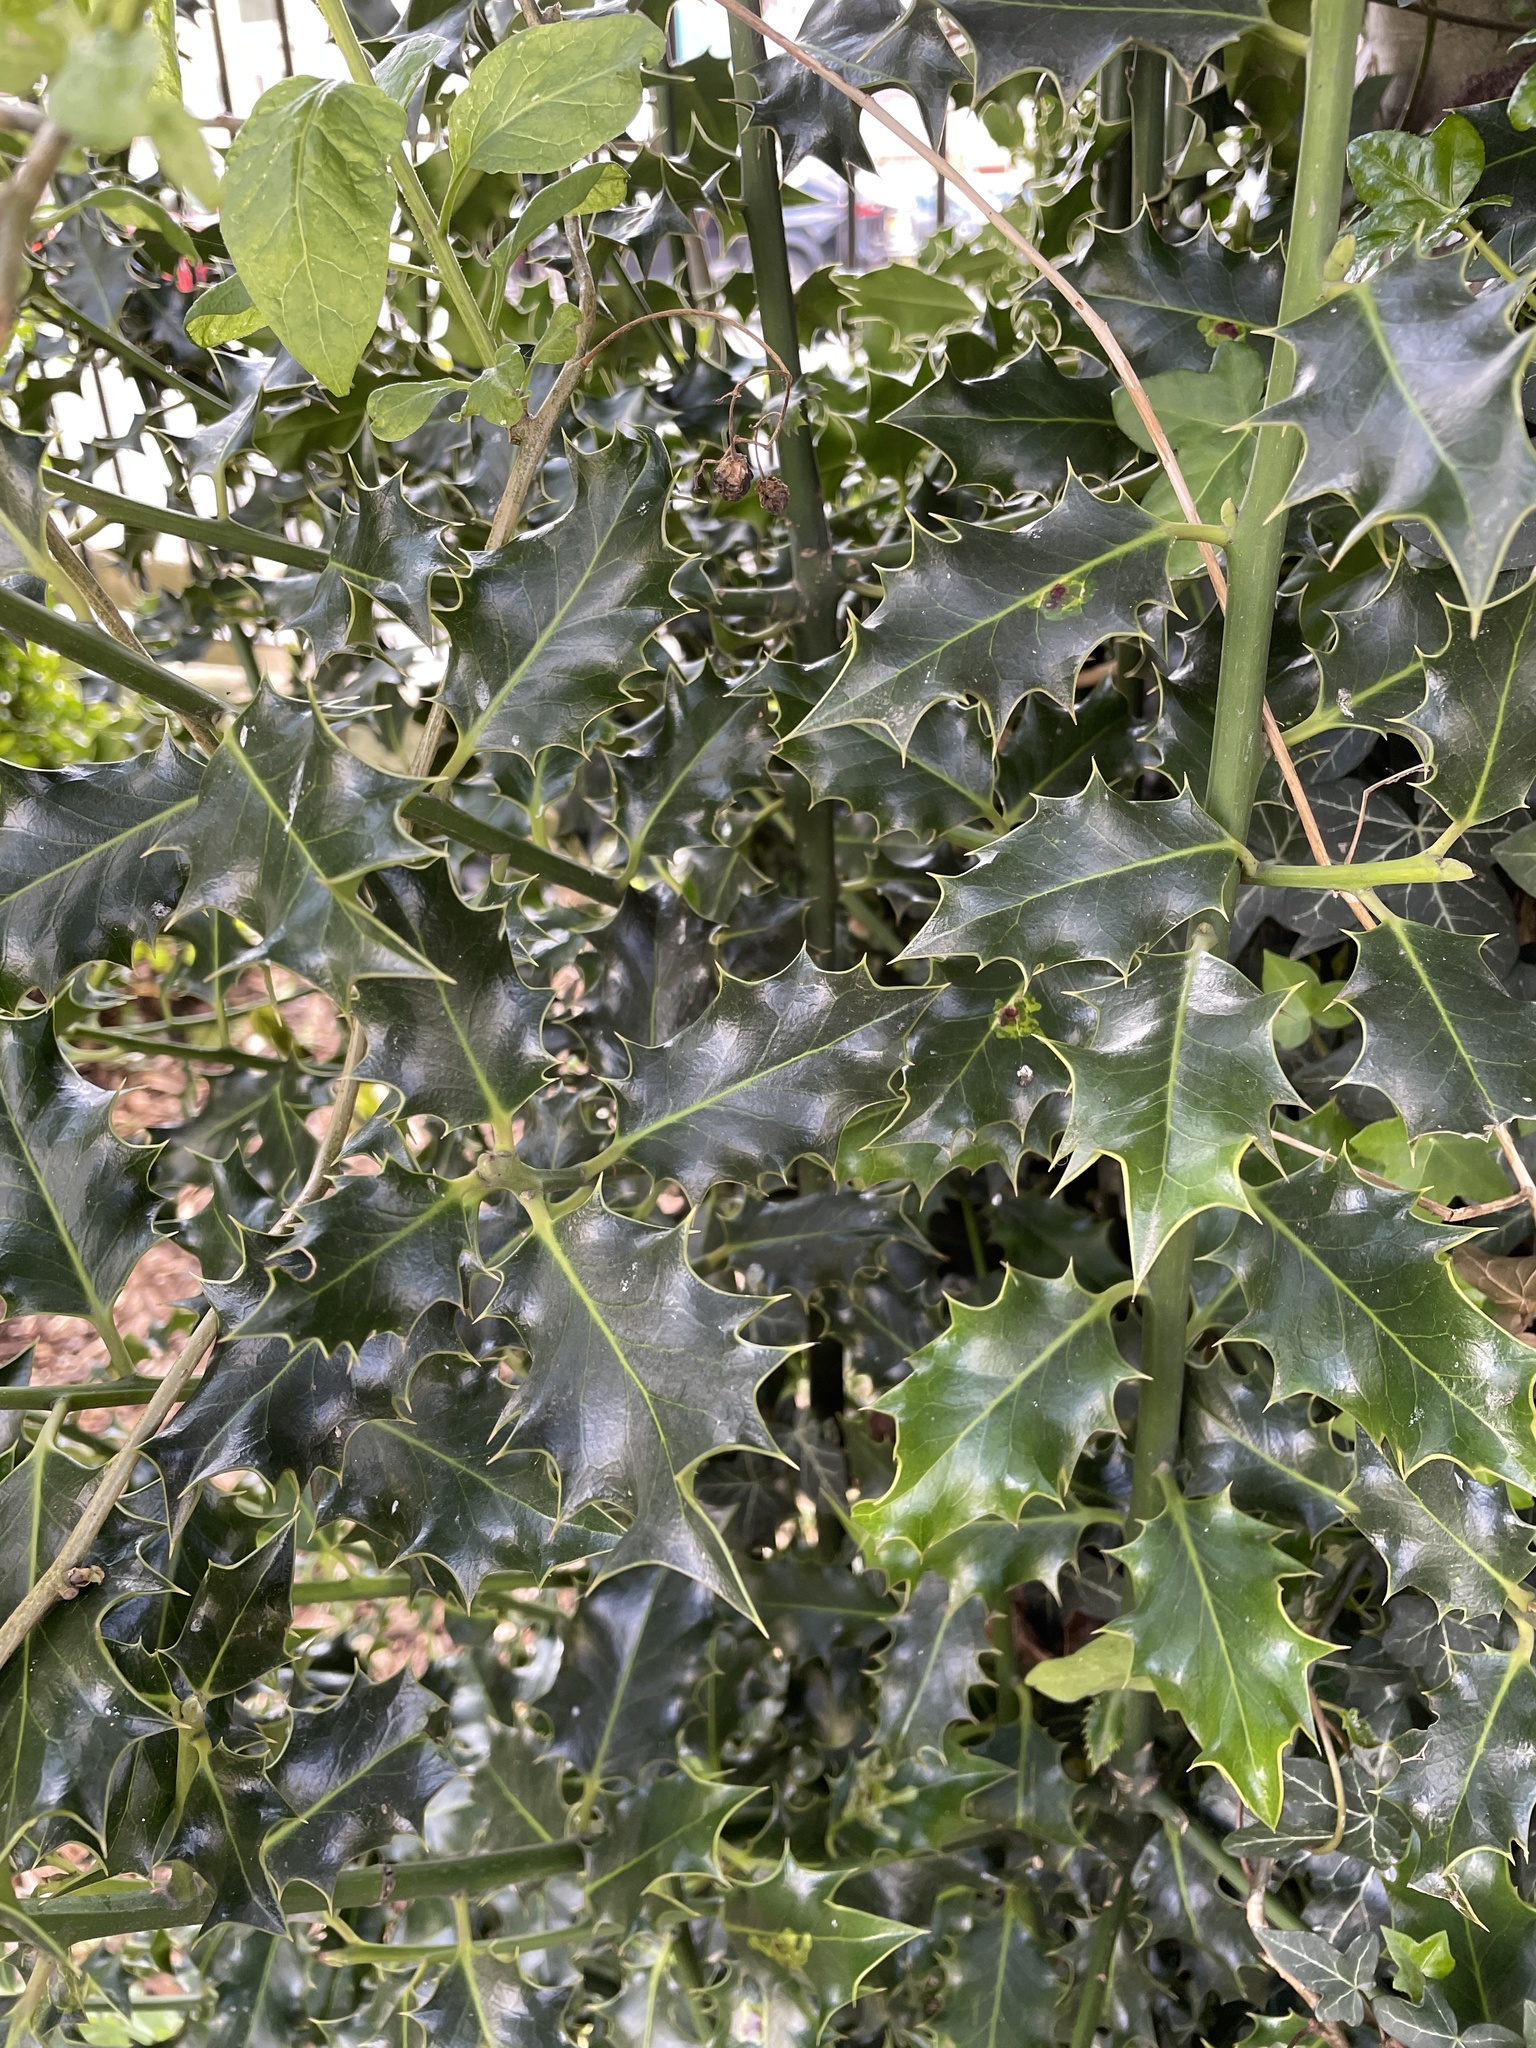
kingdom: Plantae
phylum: Tracheophyta
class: Magnoliopsida
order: Aquifoliales
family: Aquifoliaceae
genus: Ilex
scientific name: Ilex aquifolium
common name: English holly
